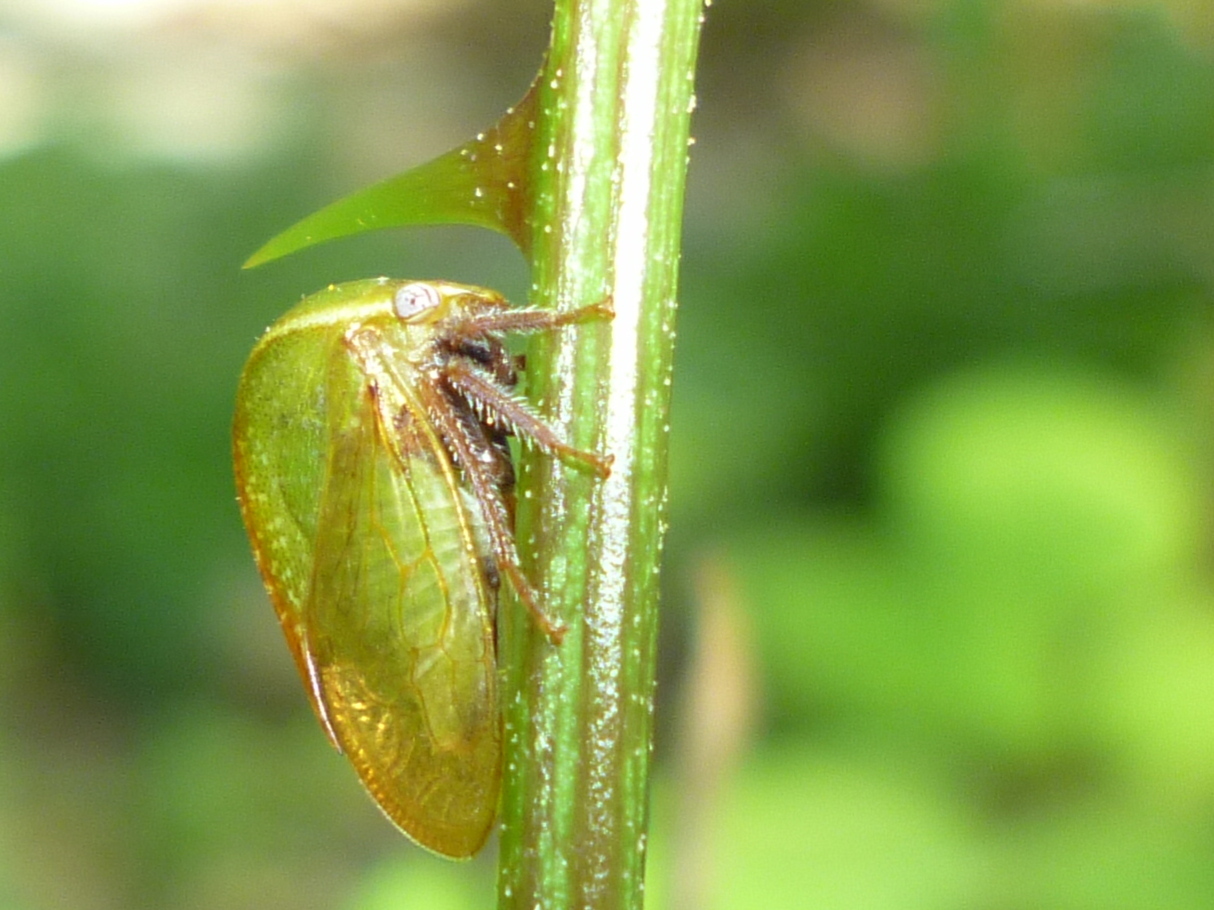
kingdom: Animalia
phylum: Arthropoda
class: Insecta
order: Hemiptera
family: Membracidae
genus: Stictocephala
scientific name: Stictocephala lutea
